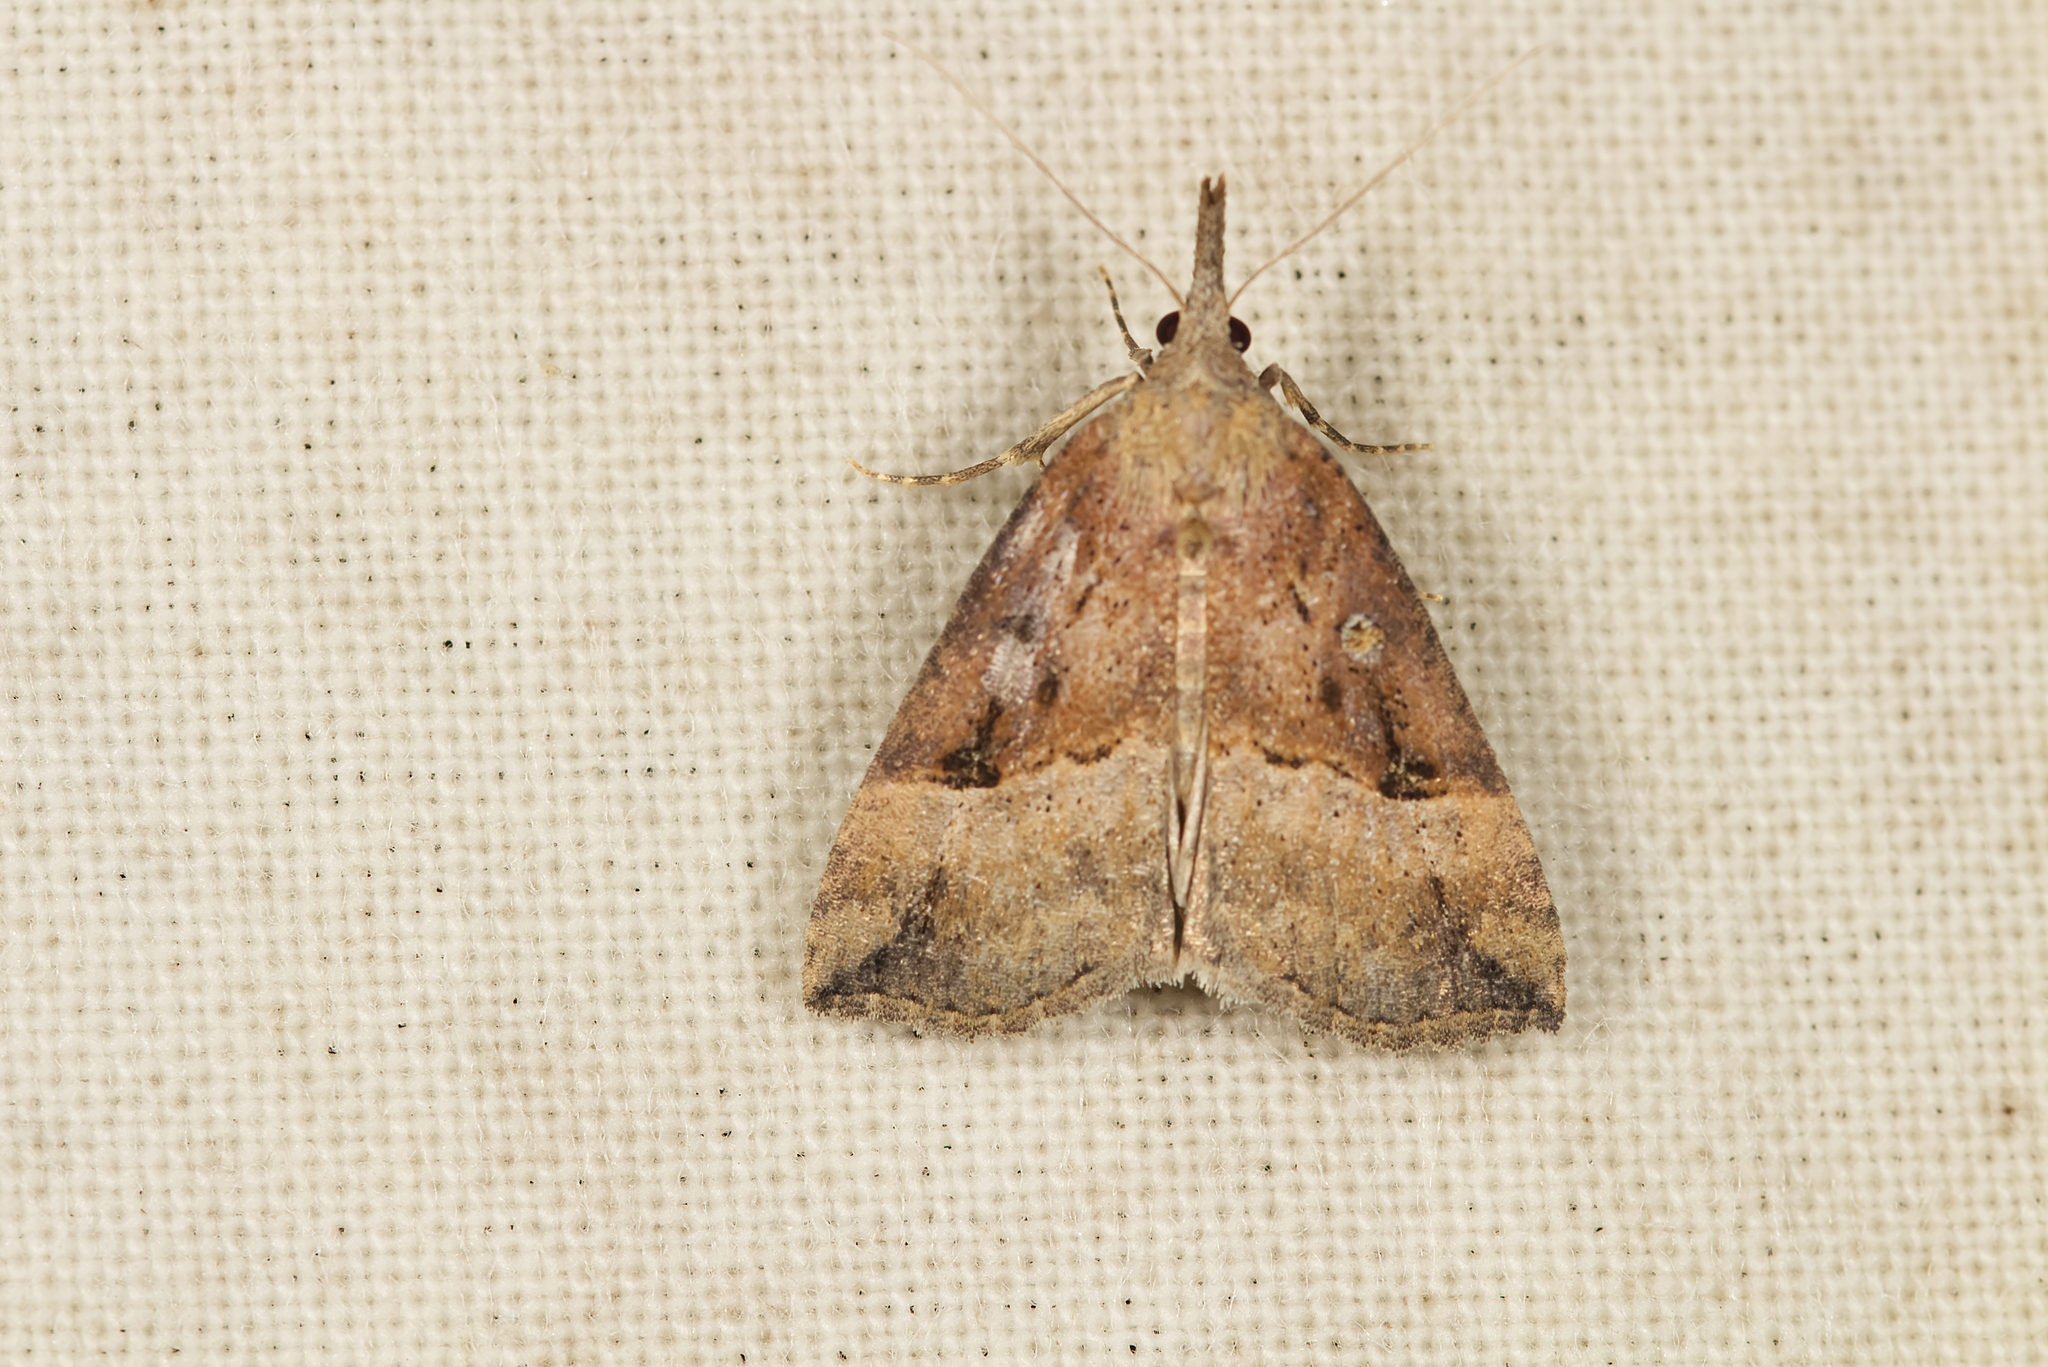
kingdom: Animalia
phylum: Arthropoda
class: Insecta
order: Lepidoptera
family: Erebidae
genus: Hypena
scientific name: Hypena rostralis
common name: Buttoned snout
